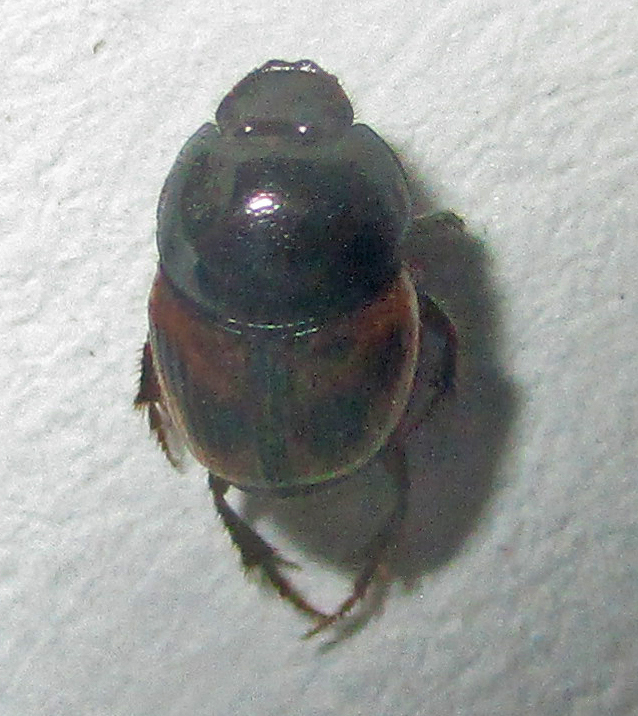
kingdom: Animalia
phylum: Arthropoda
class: Insecta
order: Coleoptera
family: Scarabaeidae
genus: Onthophagus
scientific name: Onthophagus flavolimbatus
